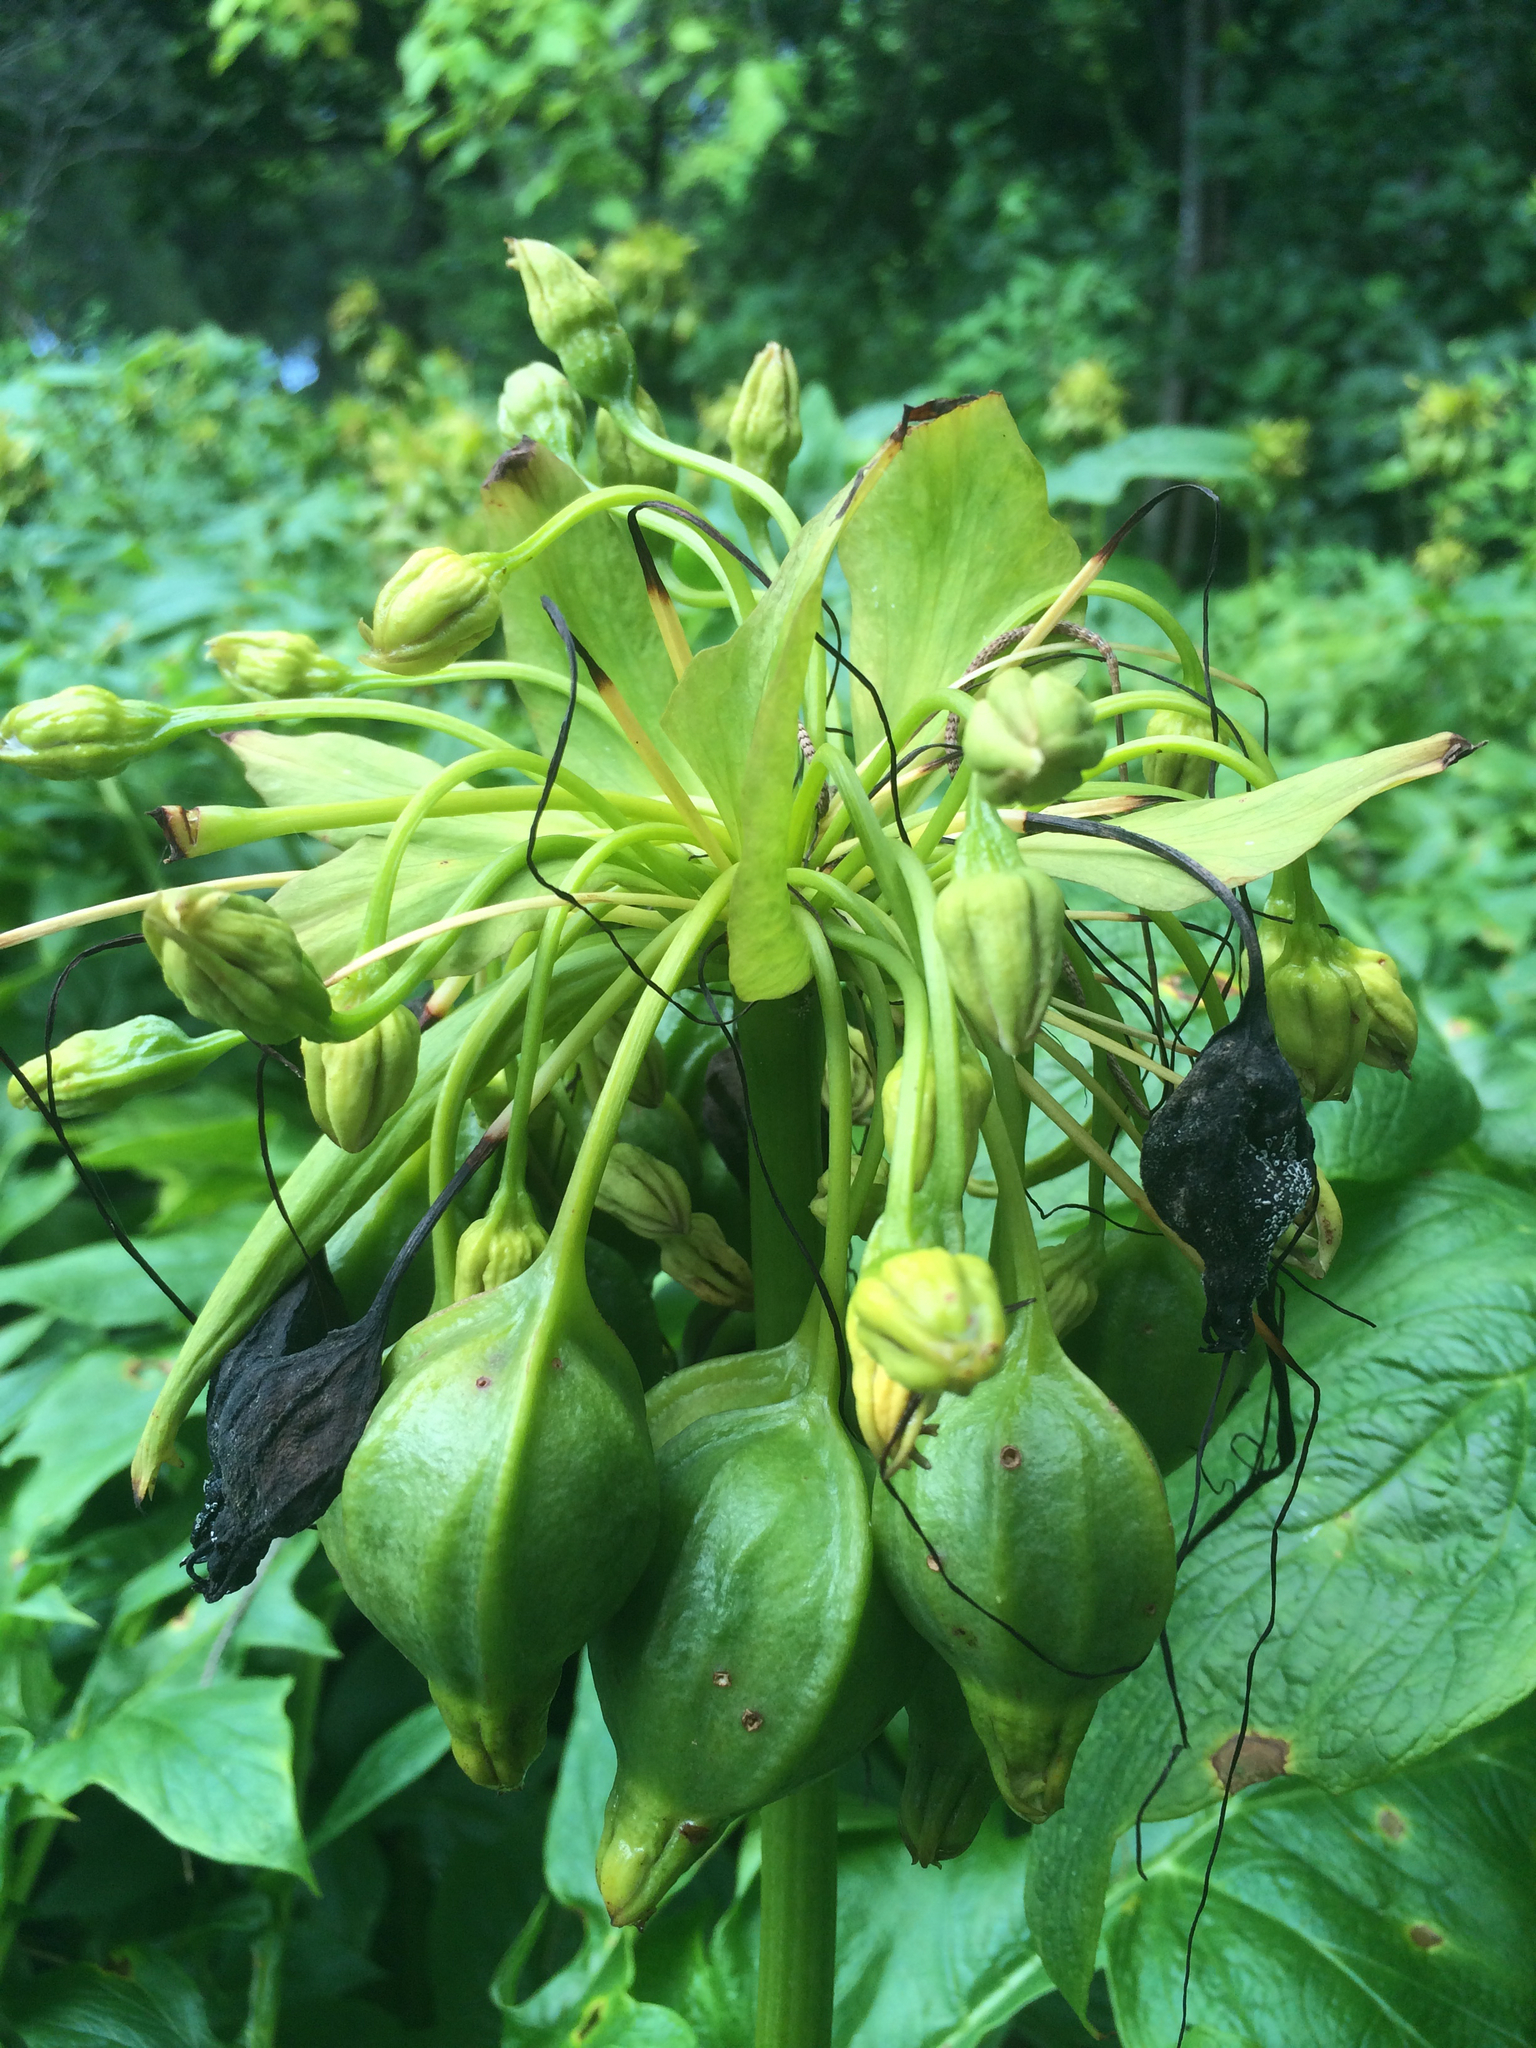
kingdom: Plantae
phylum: Tracheophyta
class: Liliopsida
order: Dioscoreales
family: Dioscoreaceae
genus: Tacca
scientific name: Tacca leontopetaloides
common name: Arrowroot
